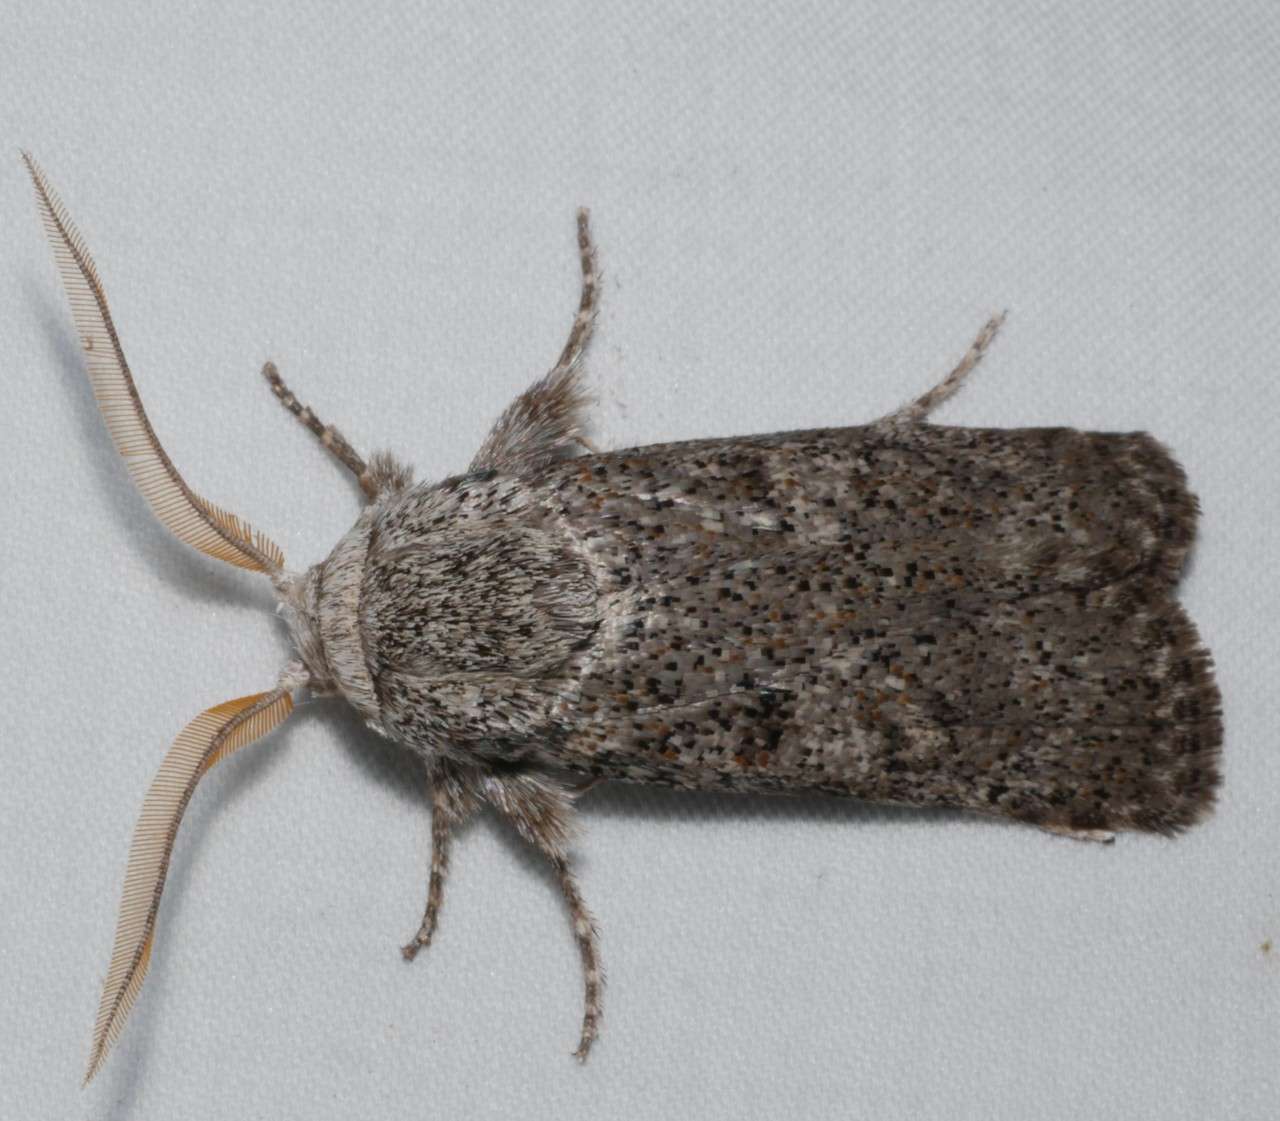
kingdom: Animalia
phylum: Arthropoda
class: Insecta
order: Lepidoptera
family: Xyloryctidae
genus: Cryptophasa
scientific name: Cryptophasa irrorata
